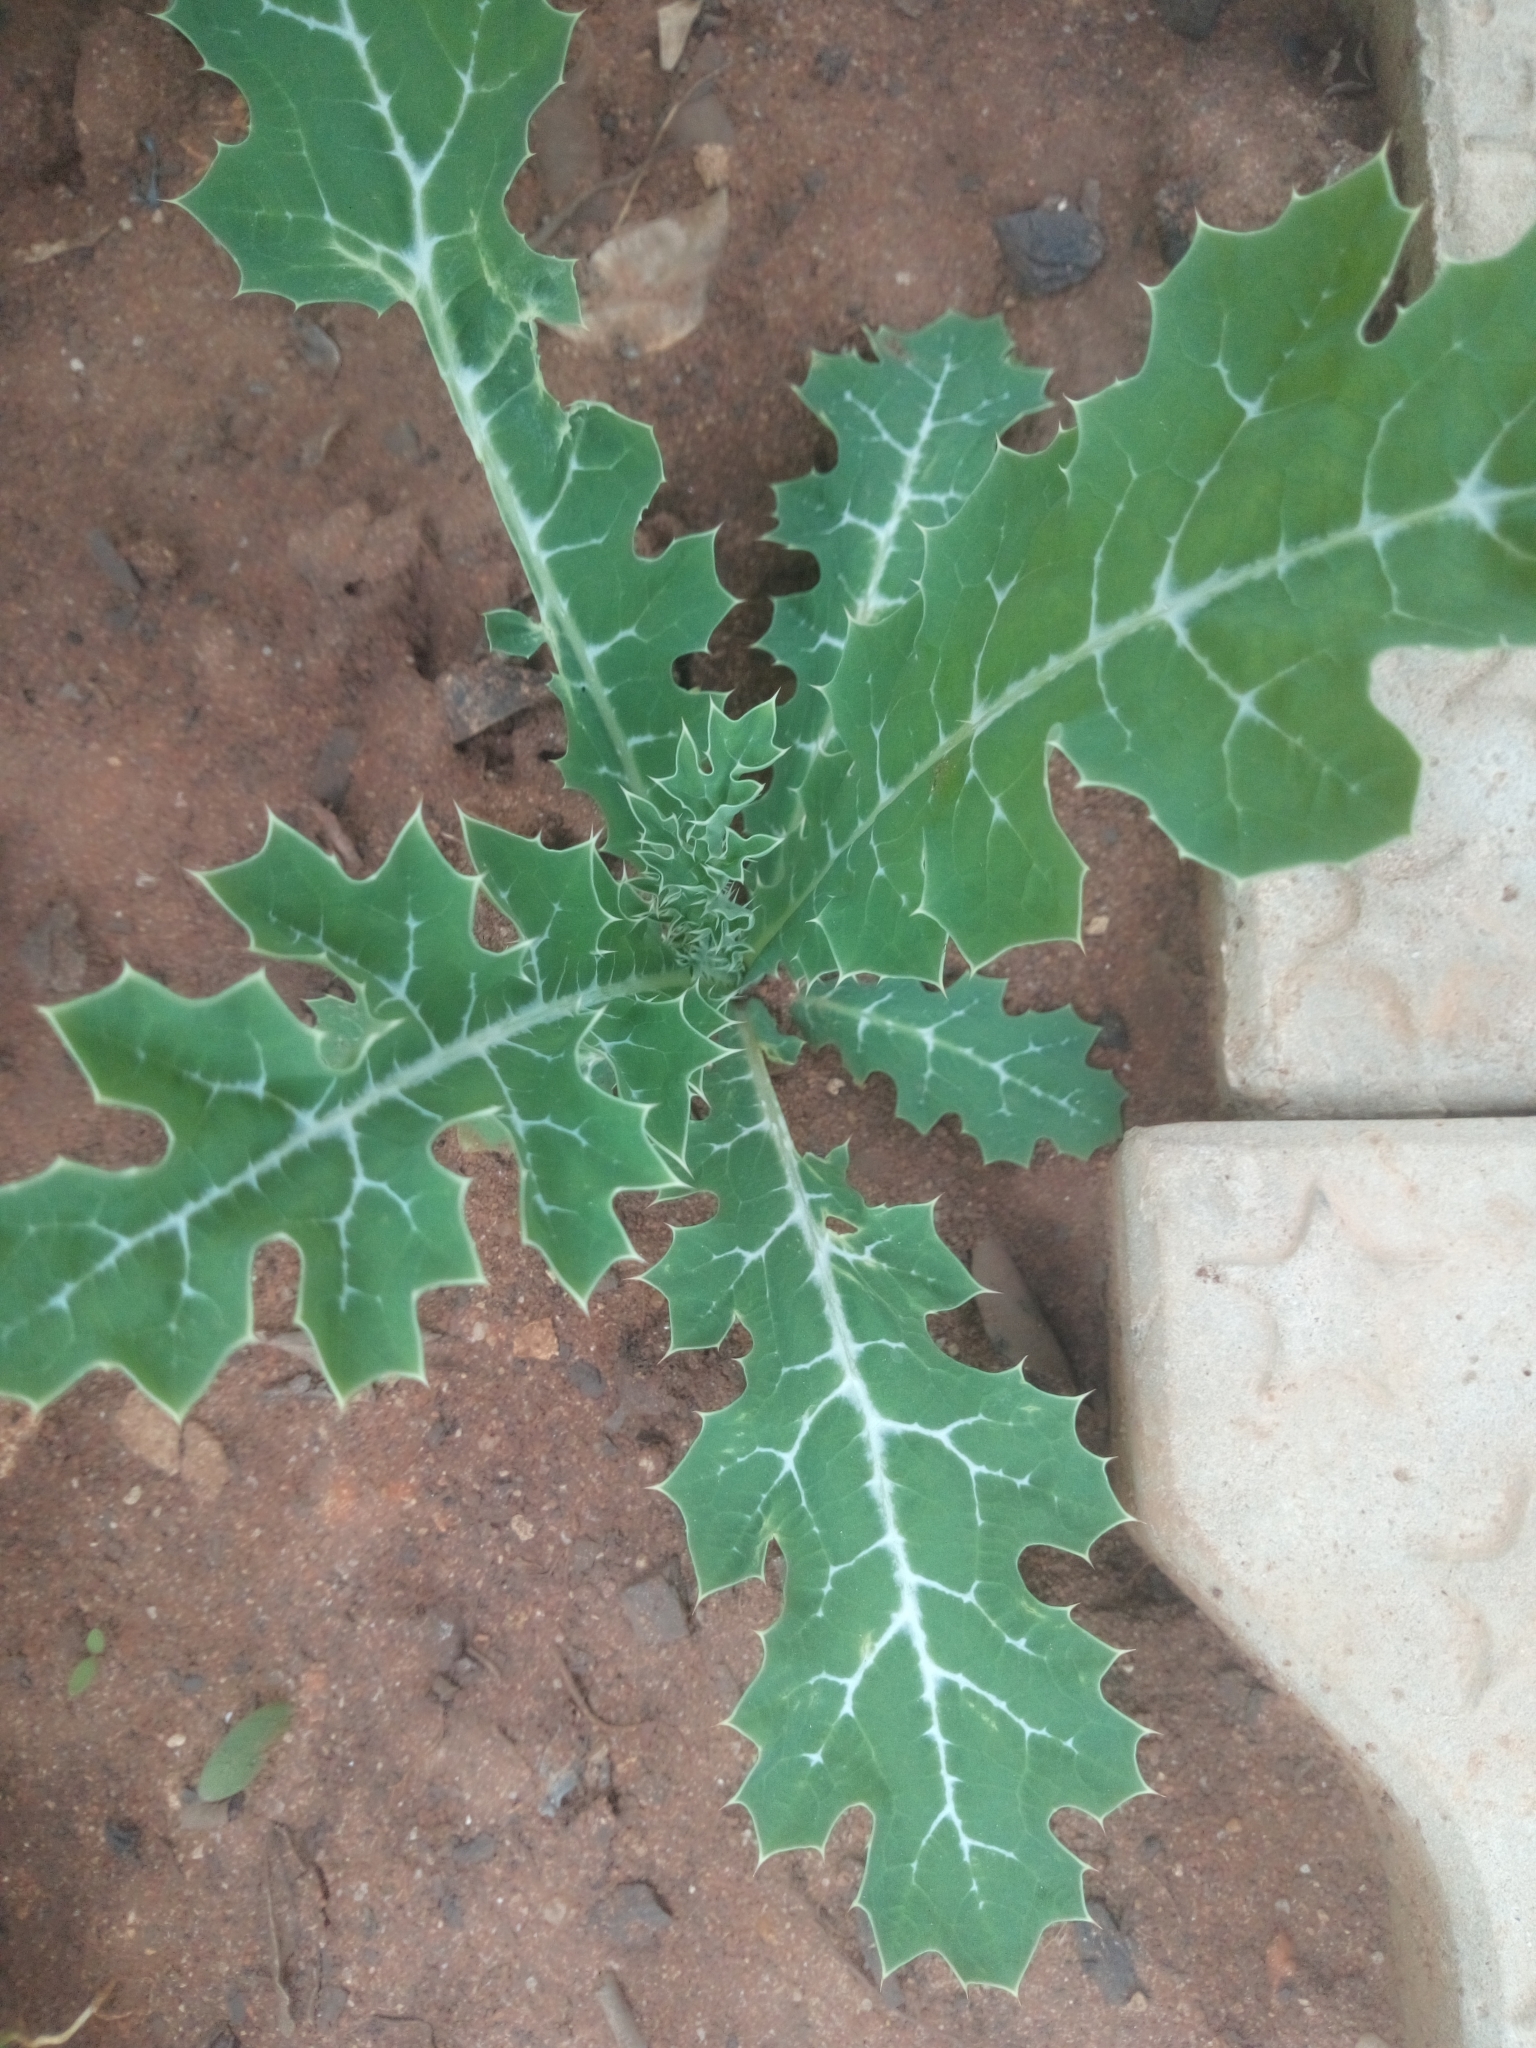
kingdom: Plantae
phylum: Tracheophyta
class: Magnoliopsida
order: Ranunculales
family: Papaveraceae
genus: Argemone
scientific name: Argemone mexicana
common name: Mexican poppy
